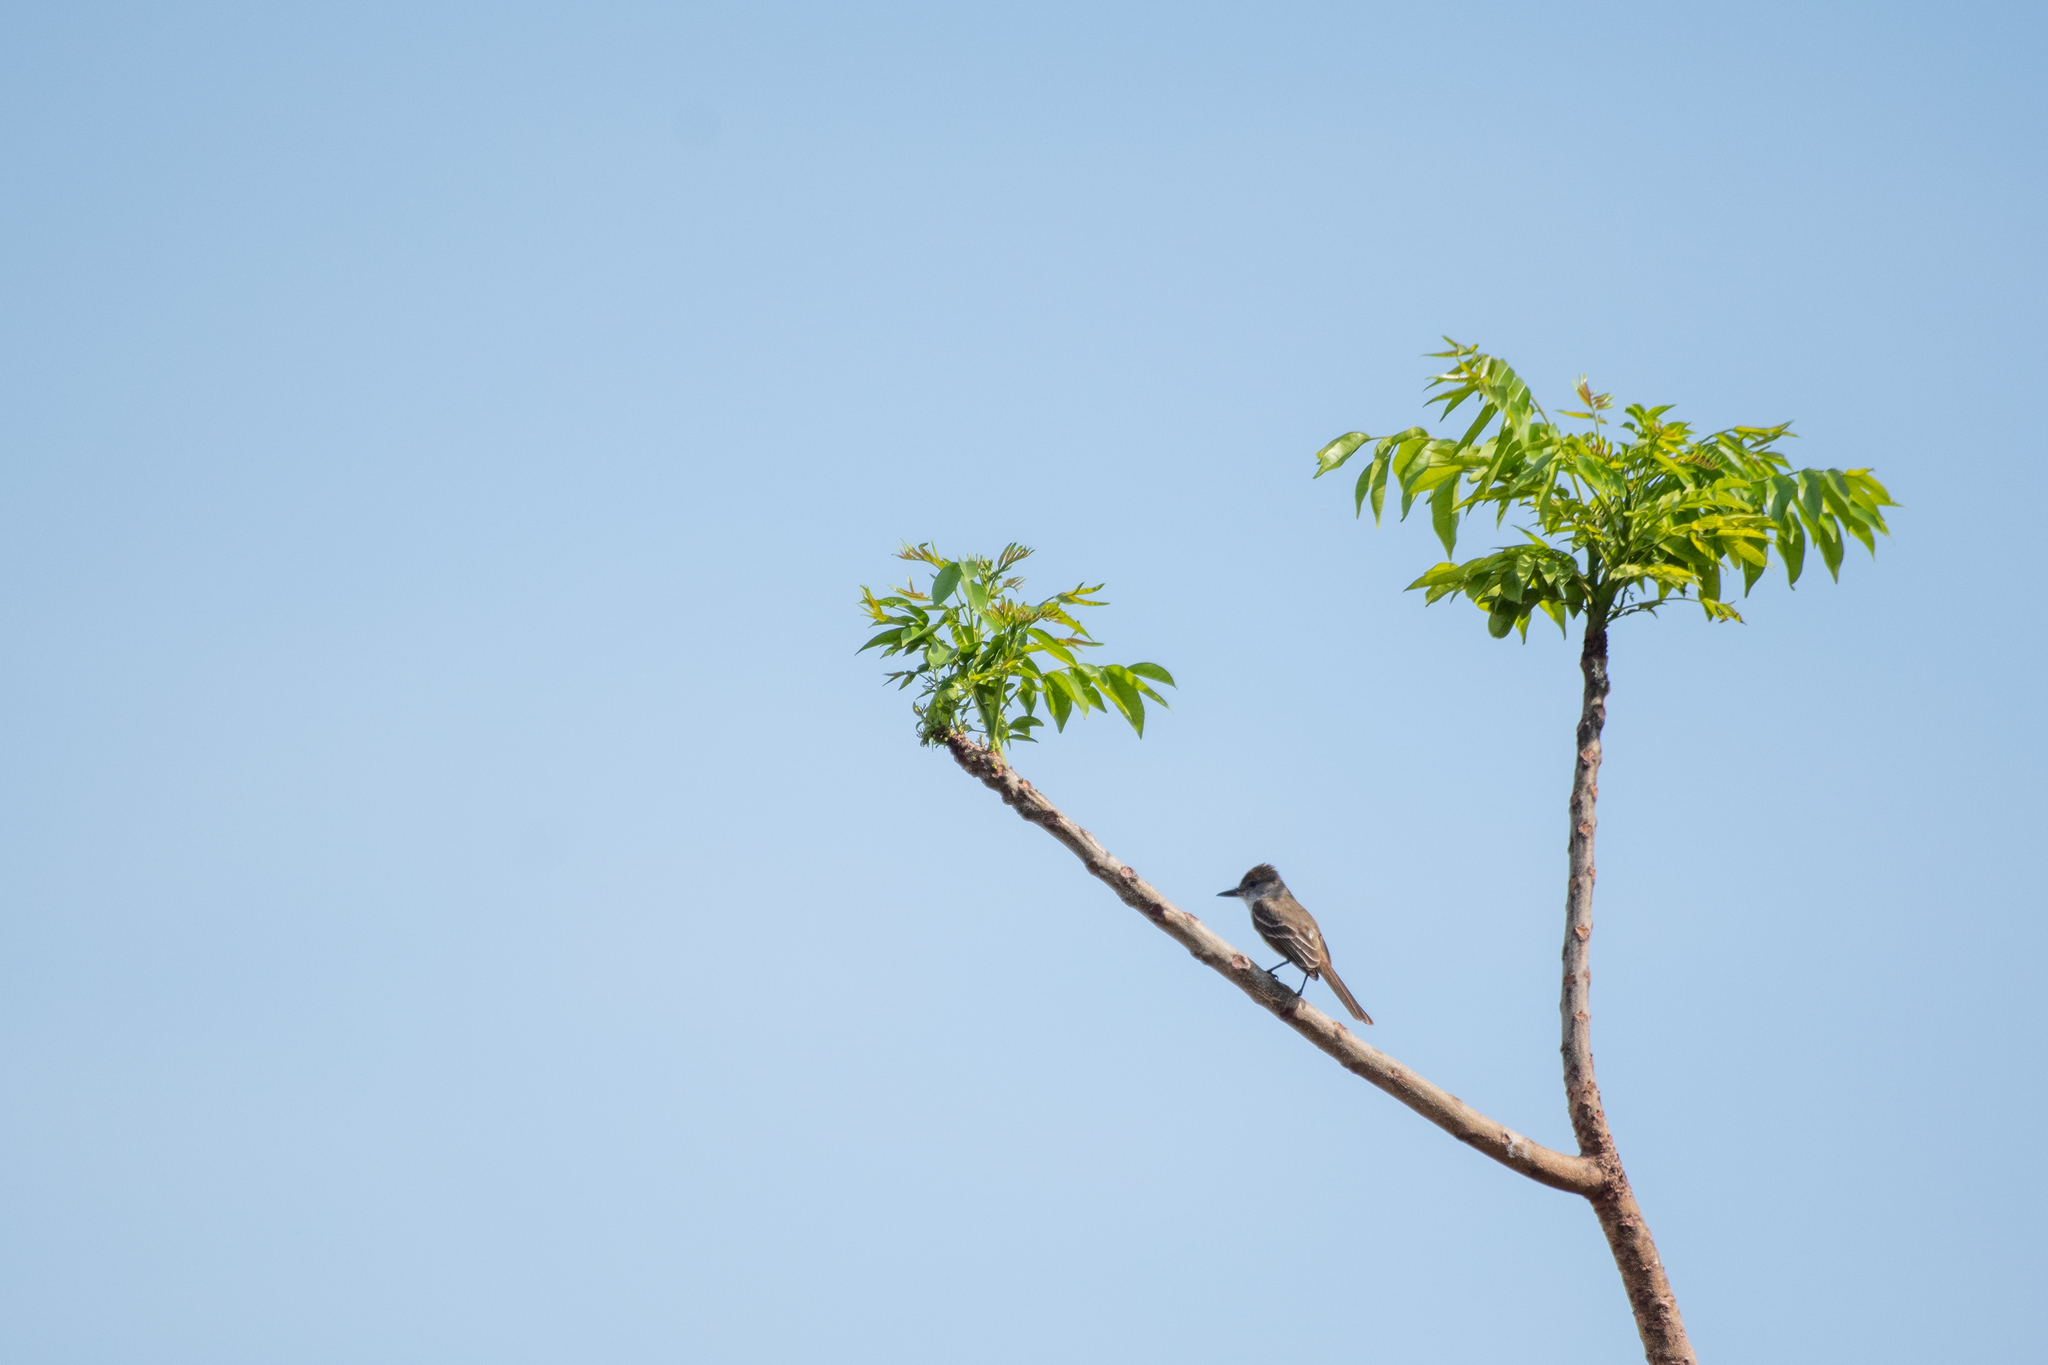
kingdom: Animalia
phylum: Chordata
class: Aves
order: Passeriformes
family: Tyrannidae
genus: Myiarchus
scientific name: Myiarchus tyrannulus
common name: Brown-crested flycatcher
